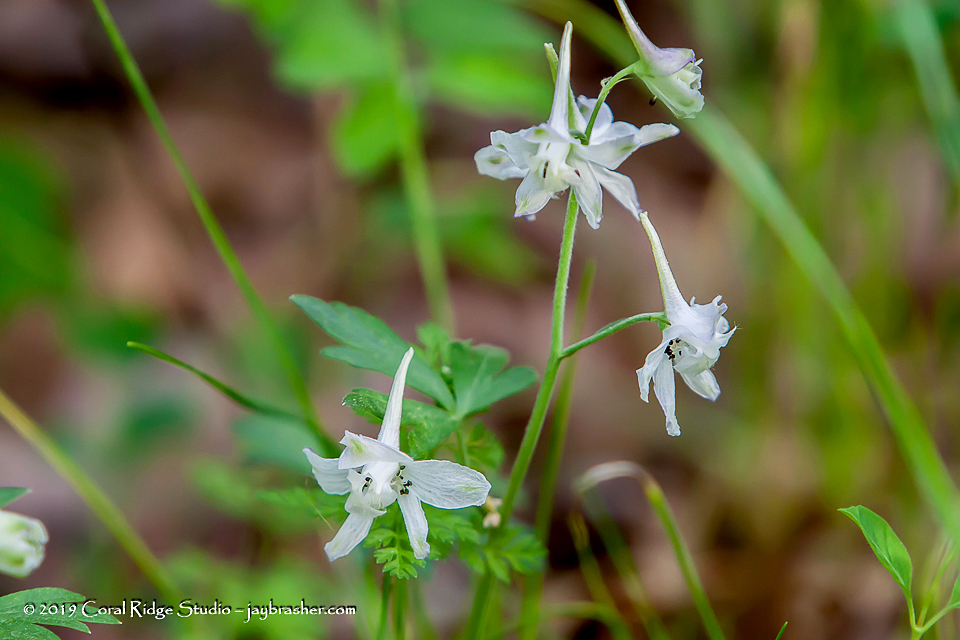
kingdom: Plantae
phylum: Tracheophyta
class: Magnoliopsida
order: Ranunculales
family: Ranunculaceae
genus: Delphinium
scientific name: Delphinium tricorne
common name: Dwarf larkspur
